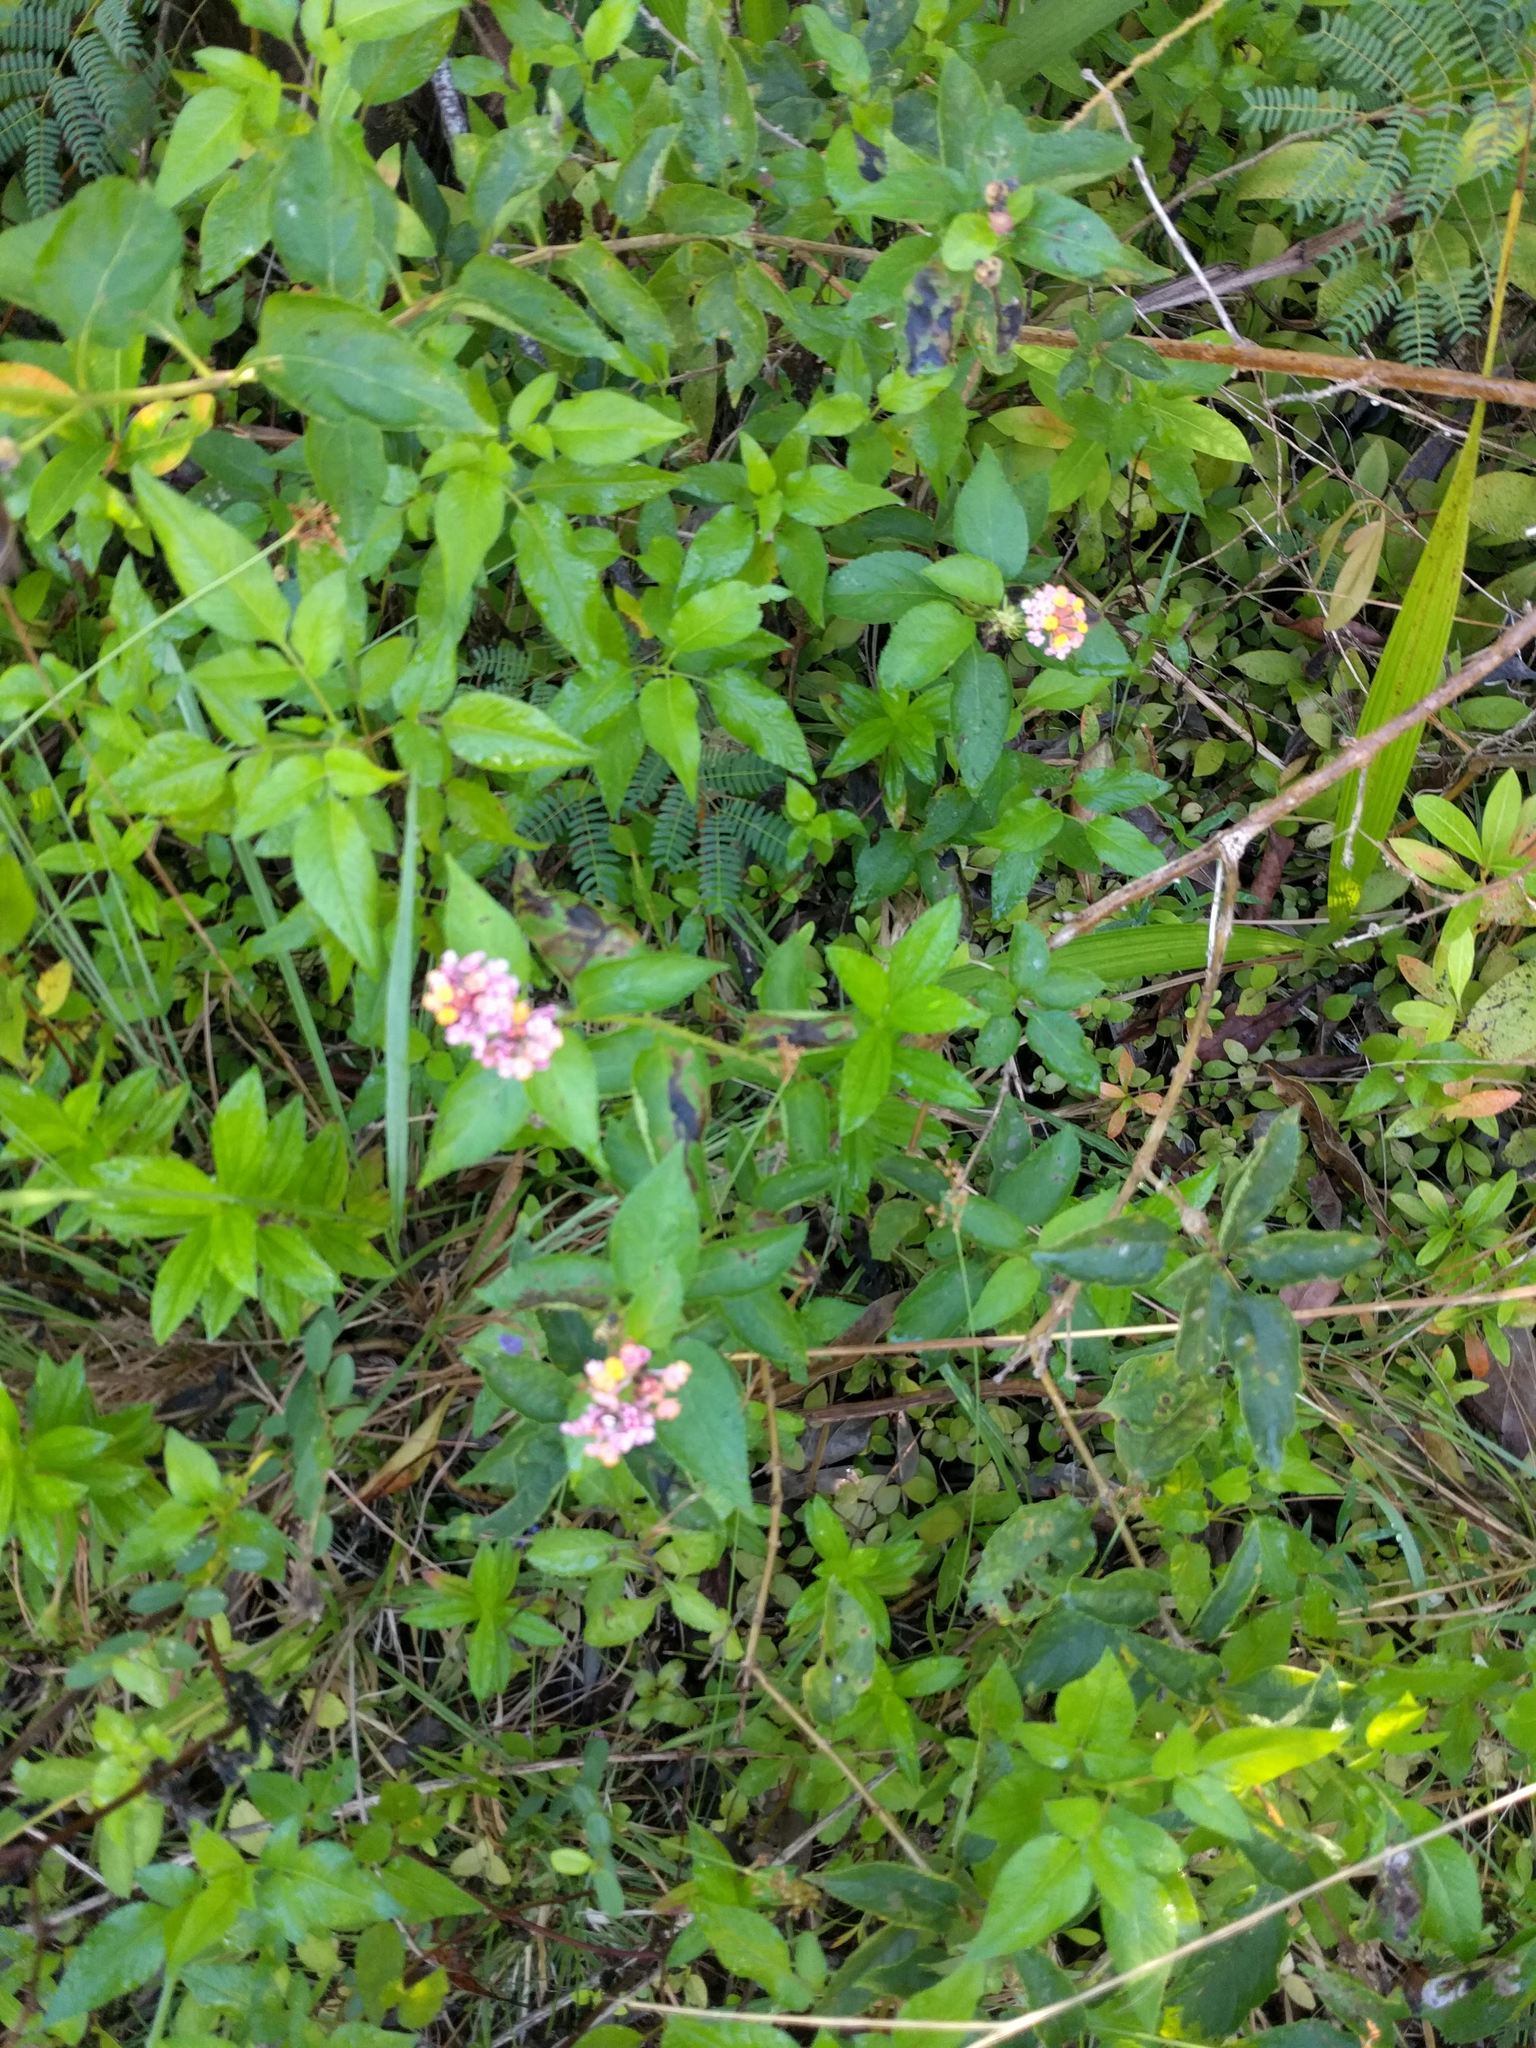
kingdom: Plantae
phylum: Tracheophyta
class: Magnoliopsida
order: Lamiales
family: Verbenaceae
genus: Lantana
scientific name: Lantana camara
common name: Lantana
